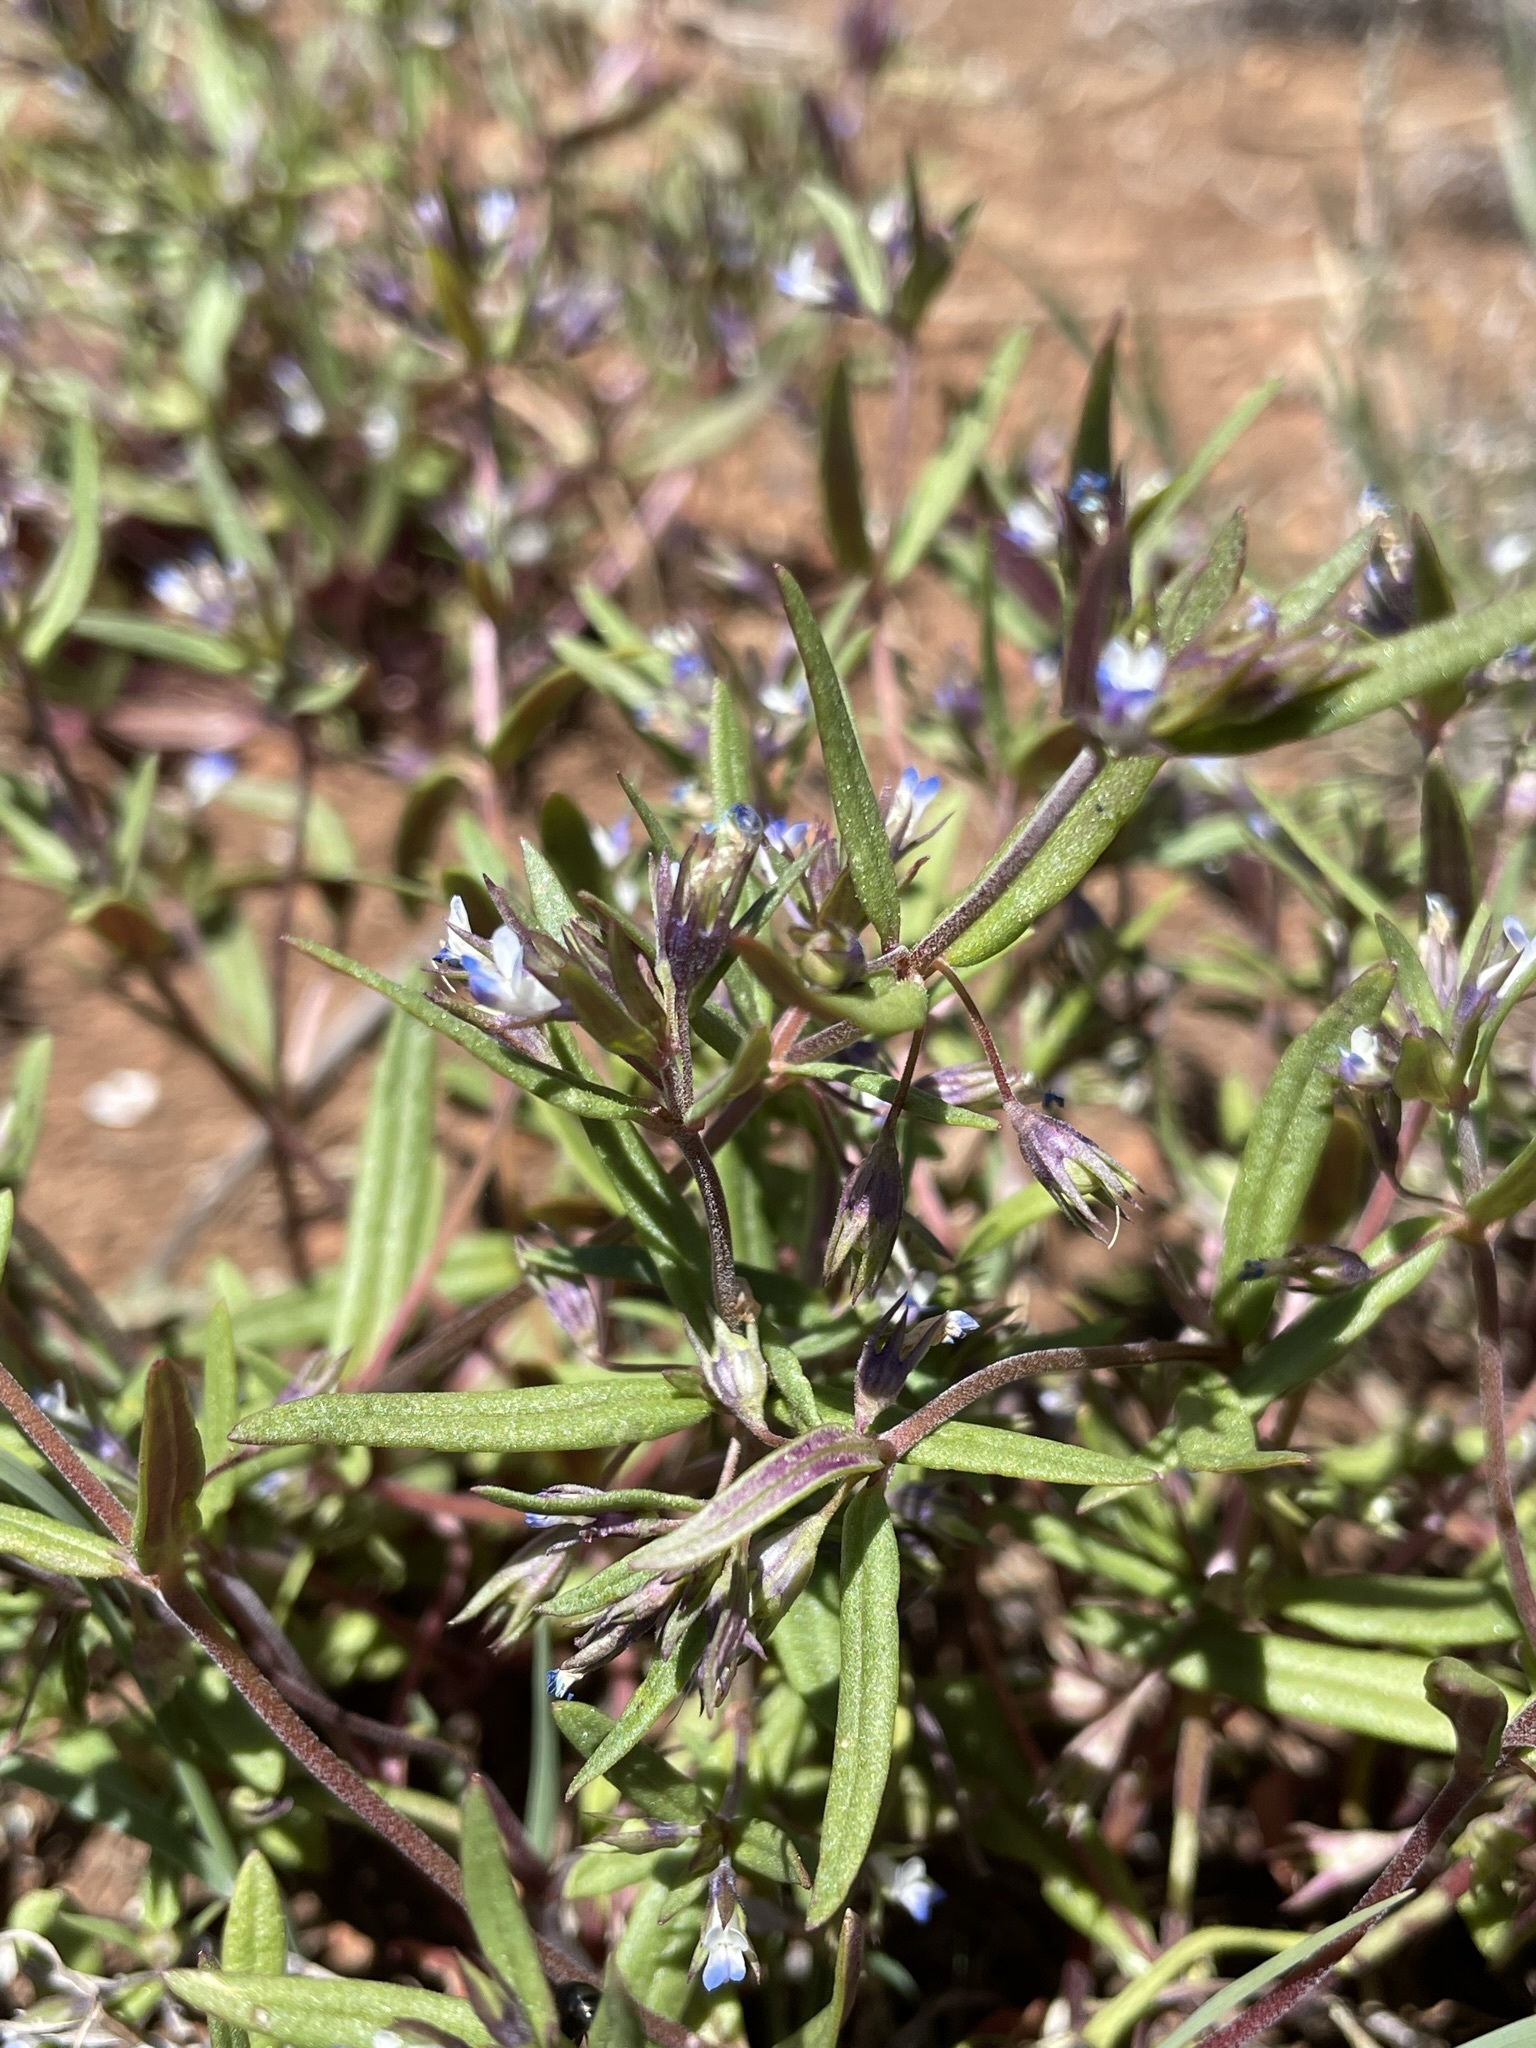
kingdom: Plantae
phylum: Tracheophyta
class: Magnoliopsida
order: Lamiales
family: Plantaginaceae
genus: Collinsia
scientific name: Collinsia parviflora
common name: Blue-lips
